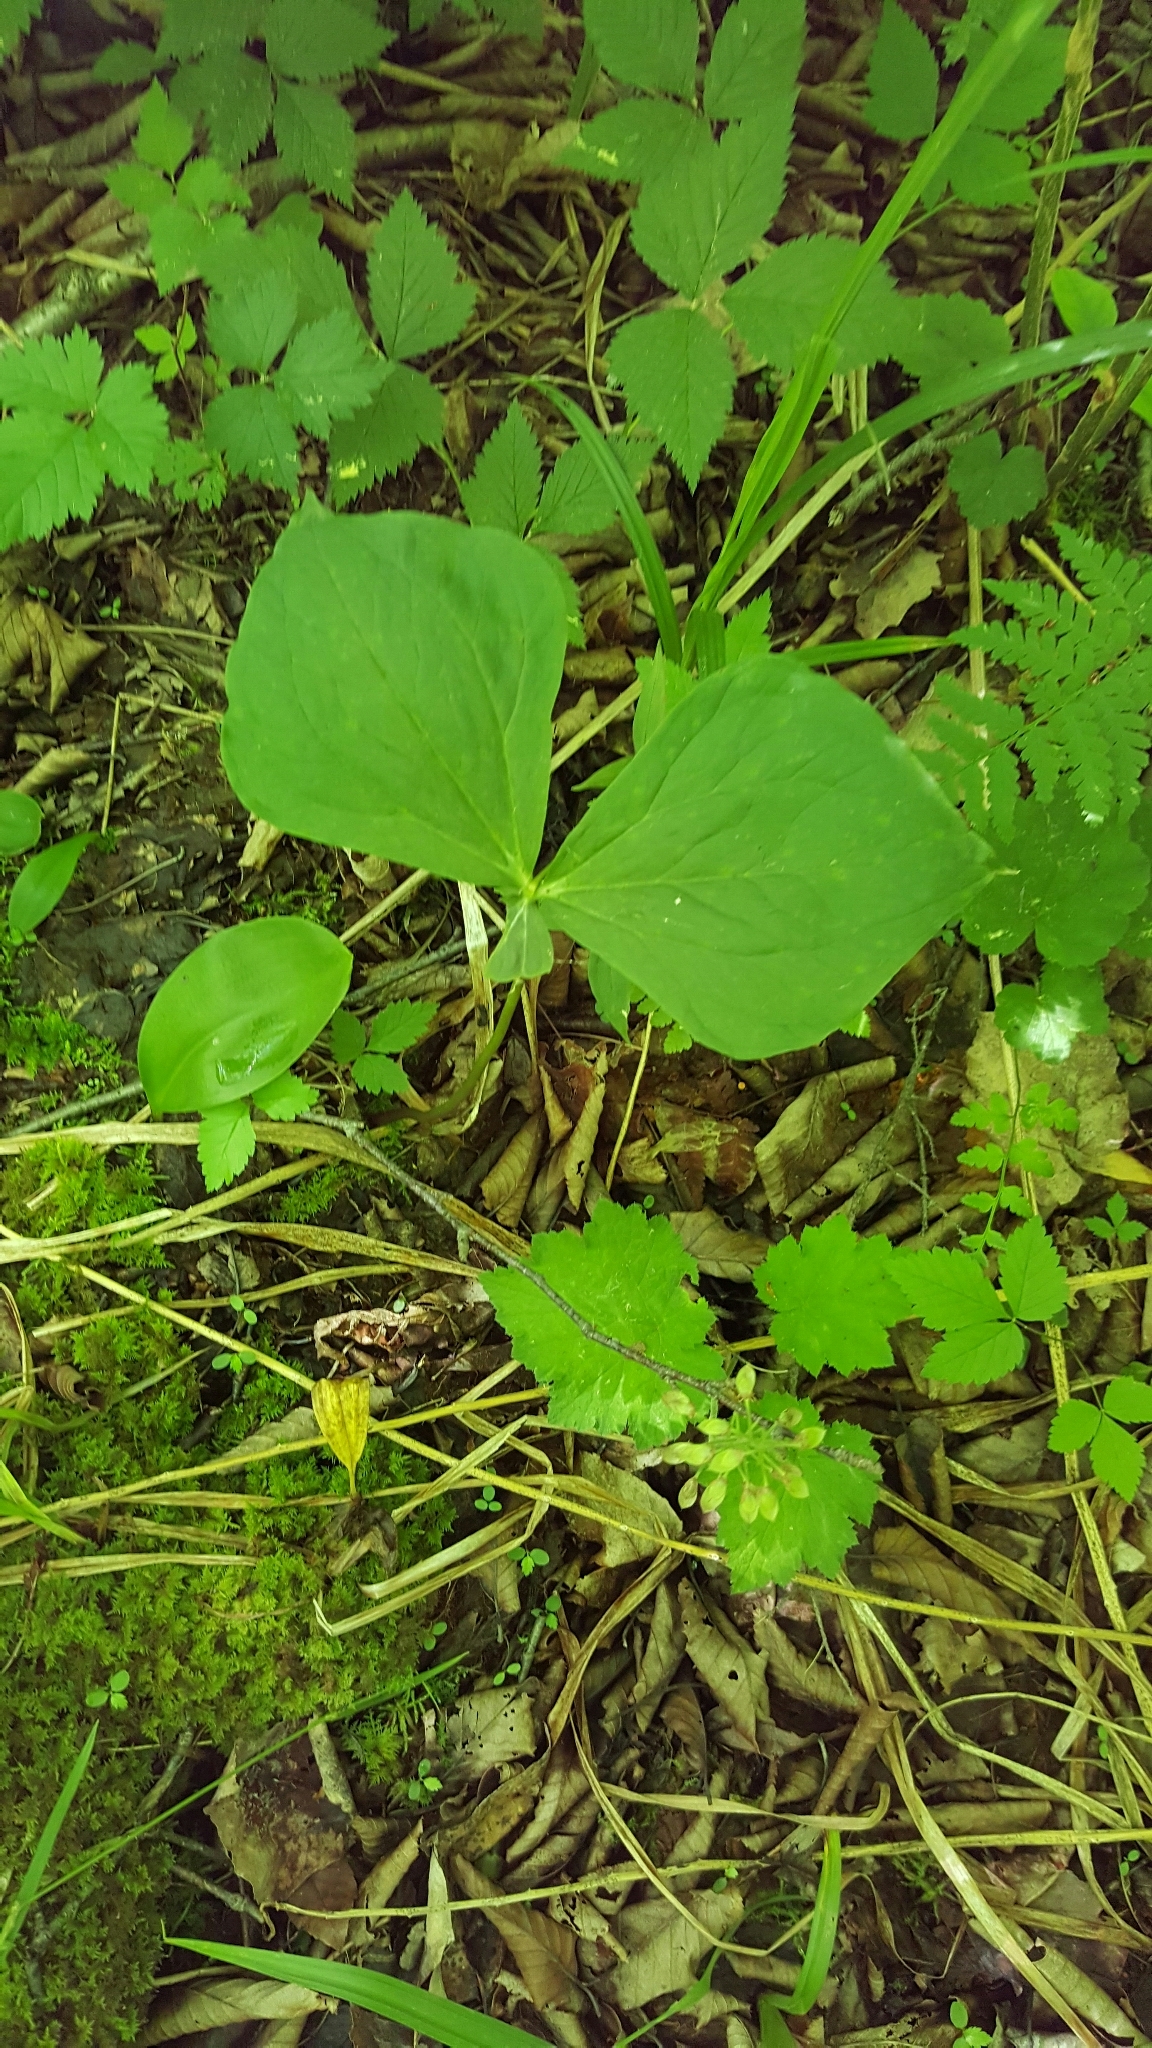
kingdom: Plantae
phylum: Tracheophyta
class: Liliopsida
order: Liliales
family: Melanthiaceae
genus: Trillium
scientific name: Trillium erectum
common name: Purple trillium
